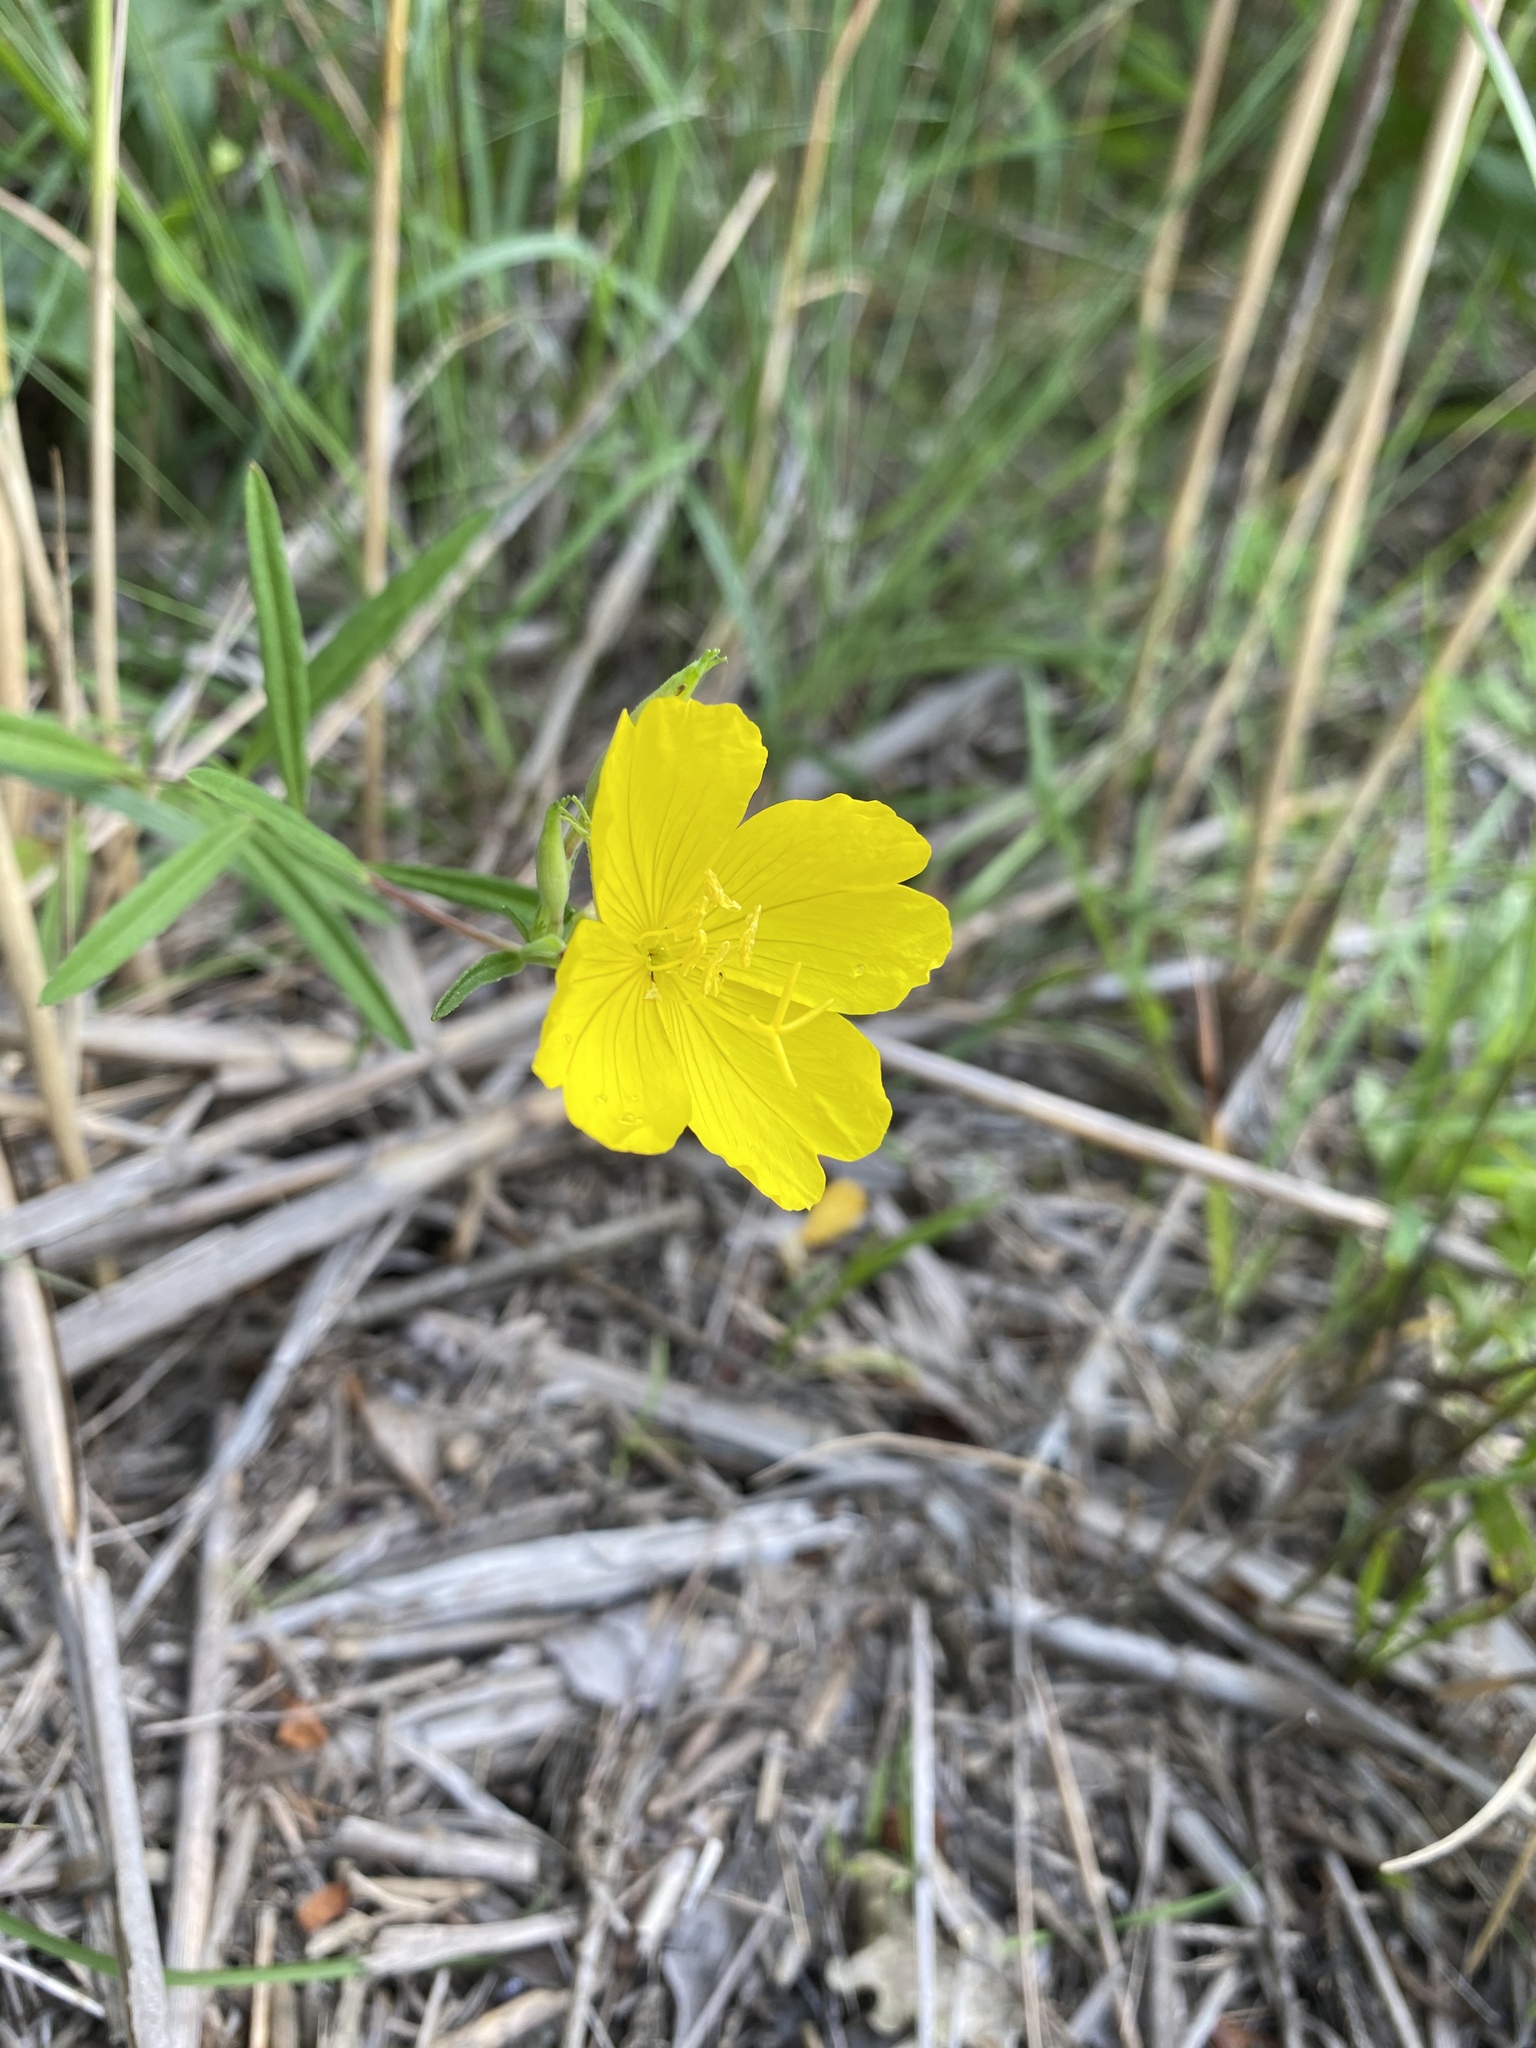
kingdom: Plantae
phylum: Tracheophyta
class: Magnoliopsida
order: Myrtales
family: Onagraceae
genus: Oenothera
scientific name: Oenothera fruticosa
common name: Southern sundrops
